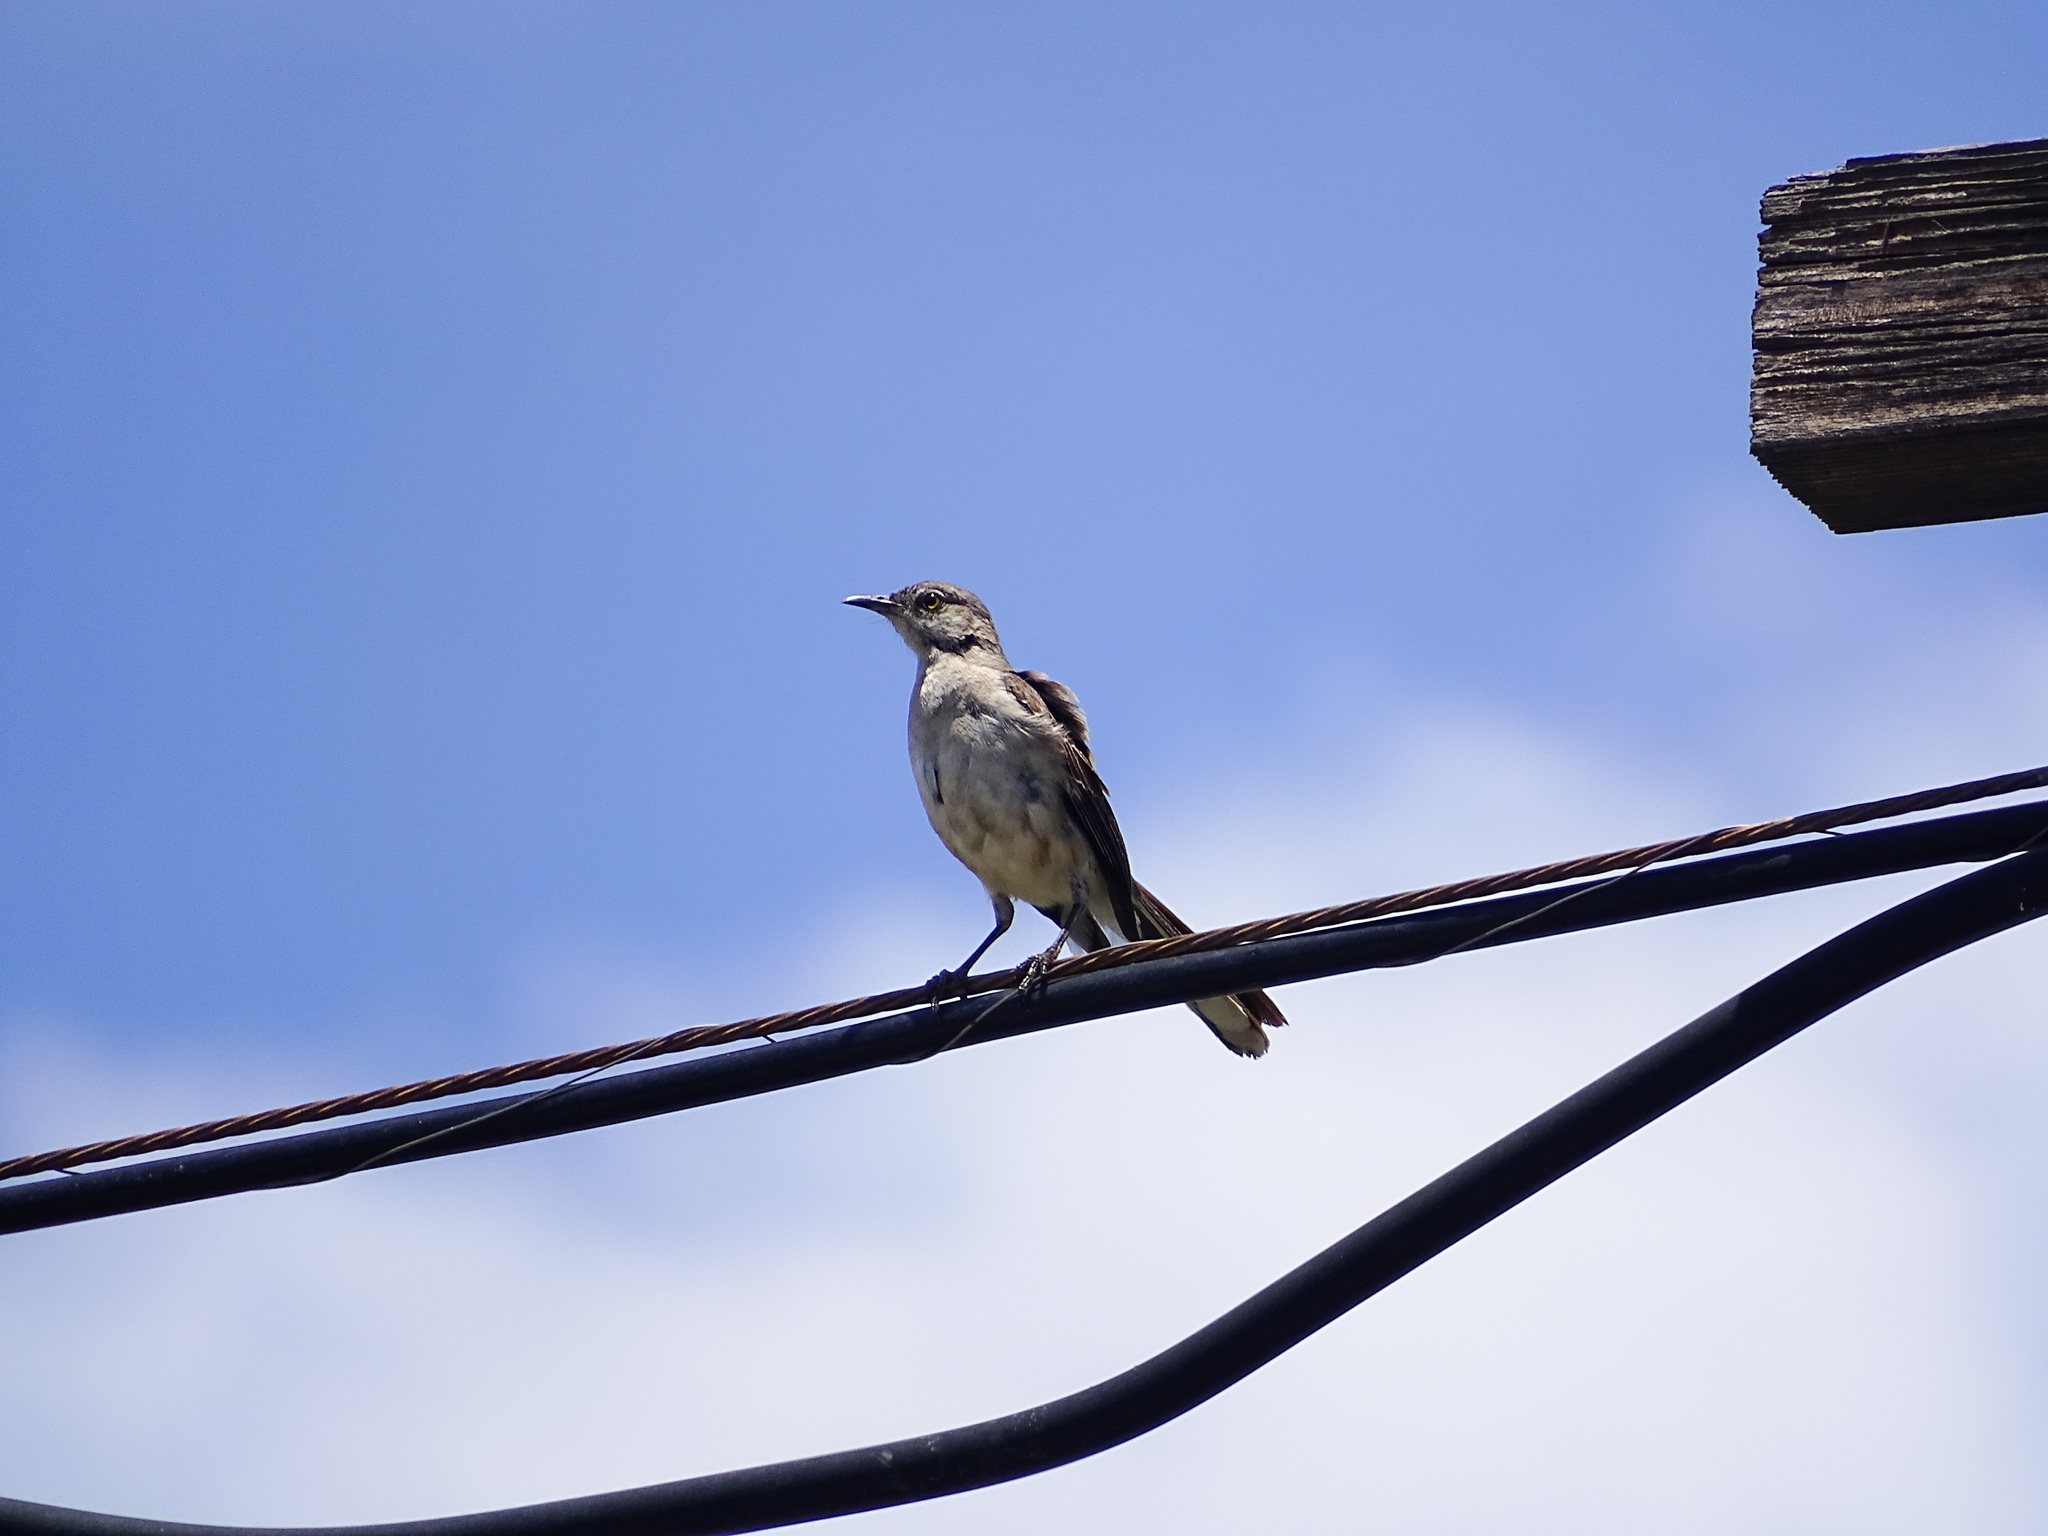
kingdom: Animalia
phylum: Chordata
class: Aves
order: Passeriformes
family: Mimidae
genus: Mimus
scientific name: Mimus polyglottos
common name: Northern mockingbird
